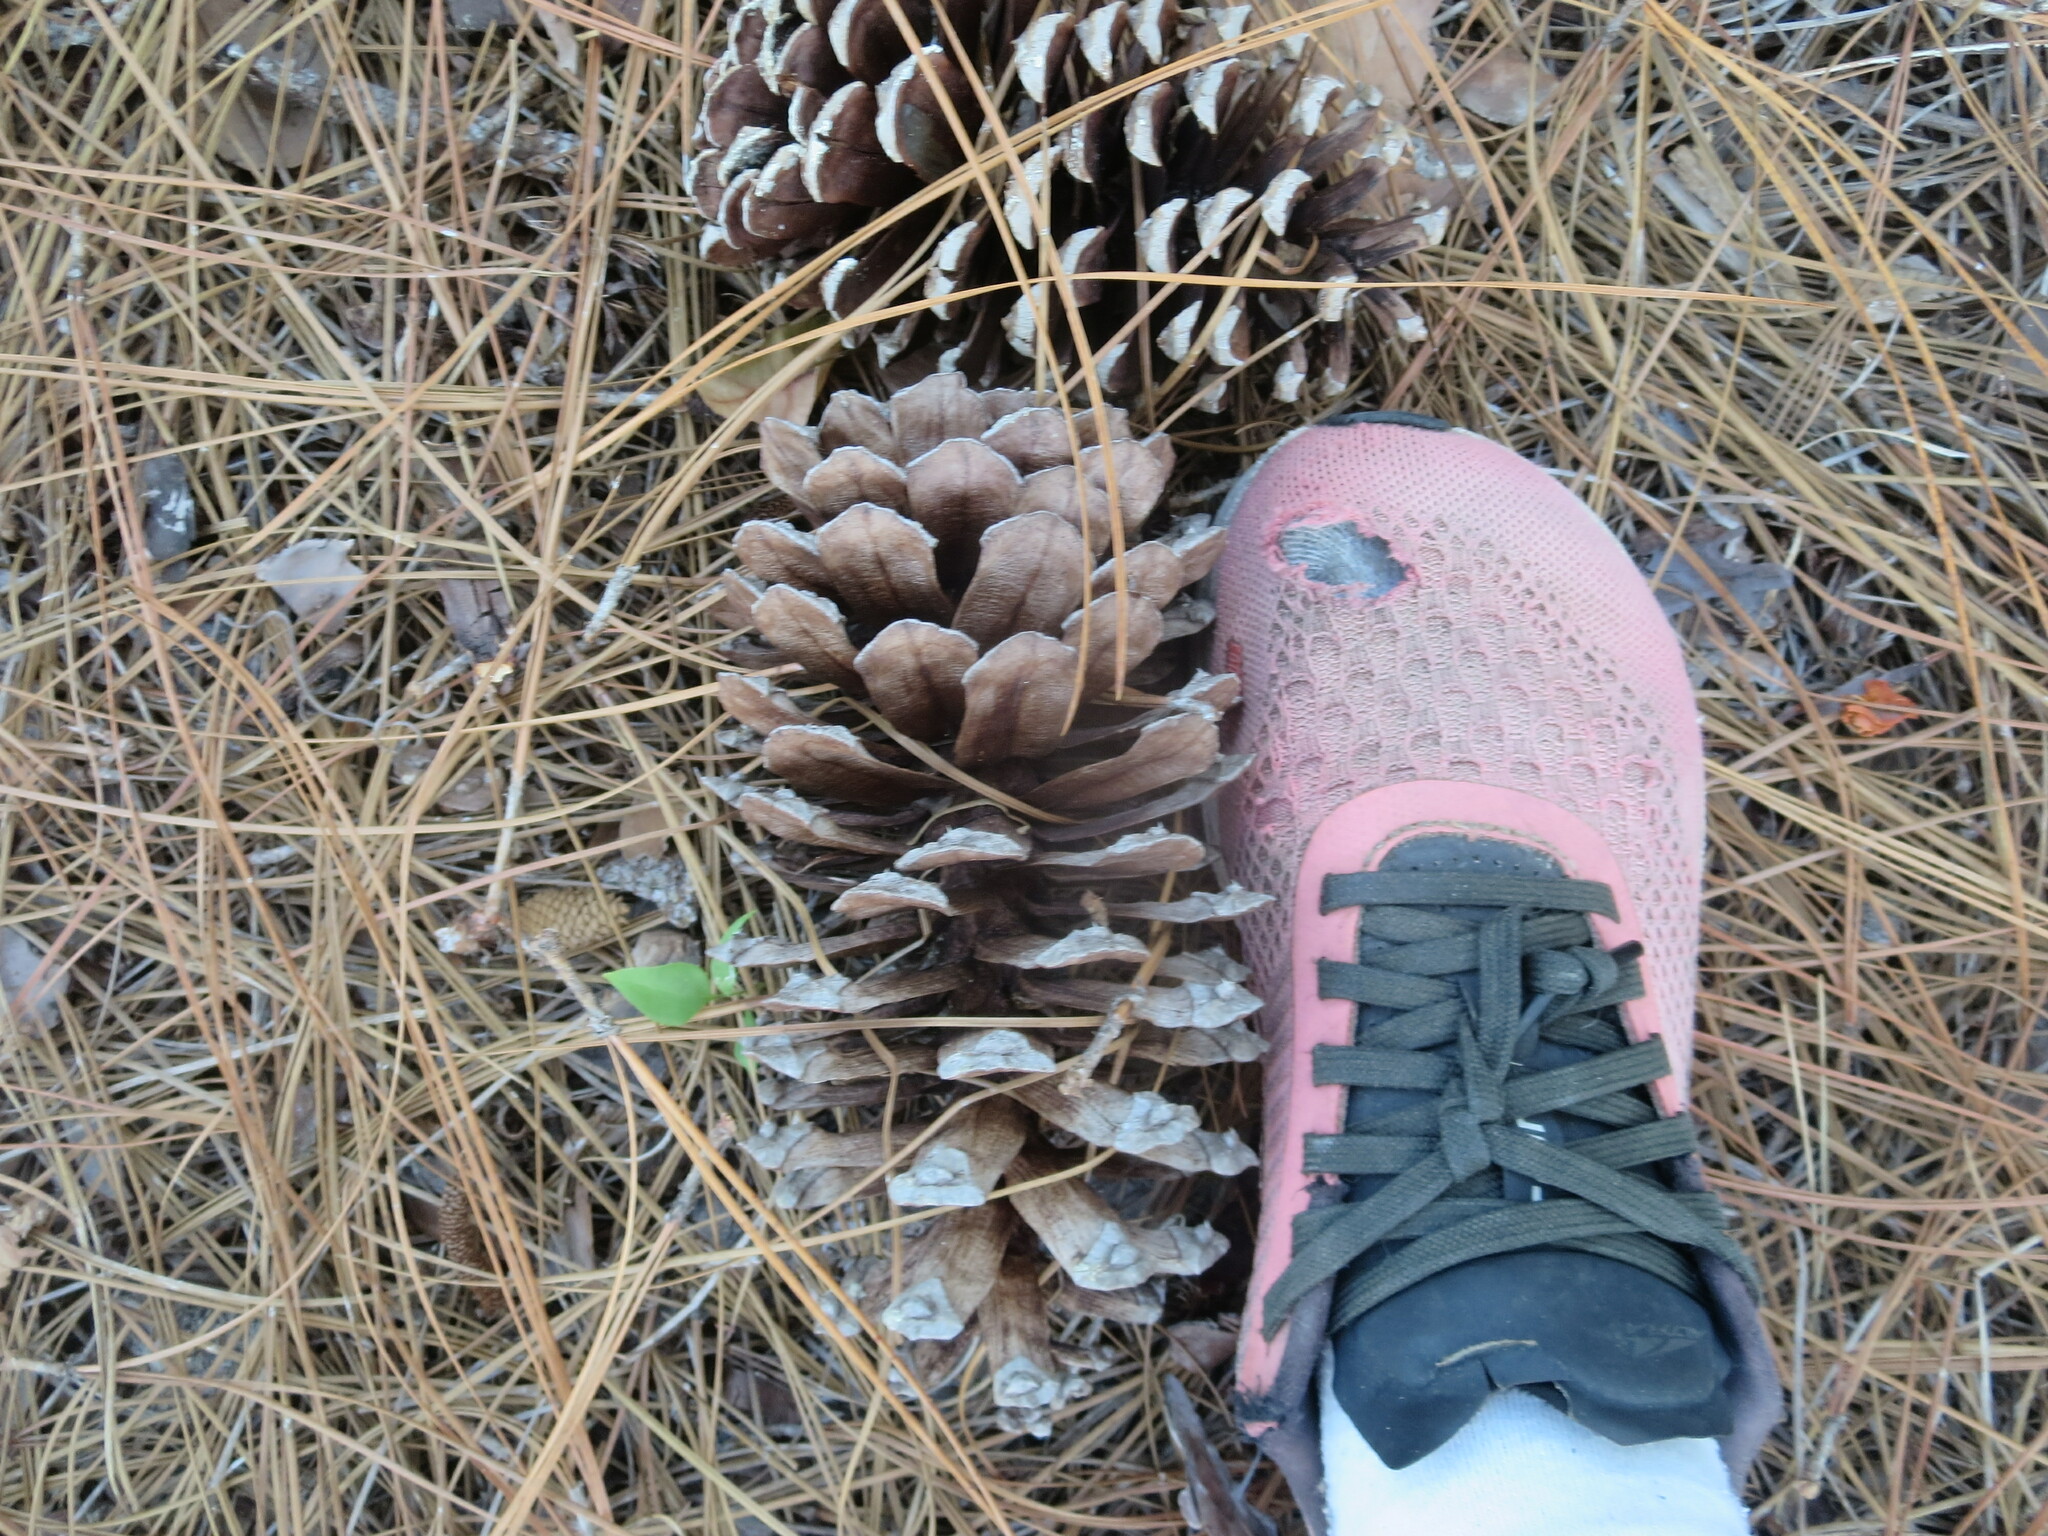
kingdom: Plantae
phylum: Tracheophyta
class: Pinopsida
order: Pinales
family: Pinaceae
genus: Pinus
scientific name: Pinus palustris
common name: Longleaf pine
